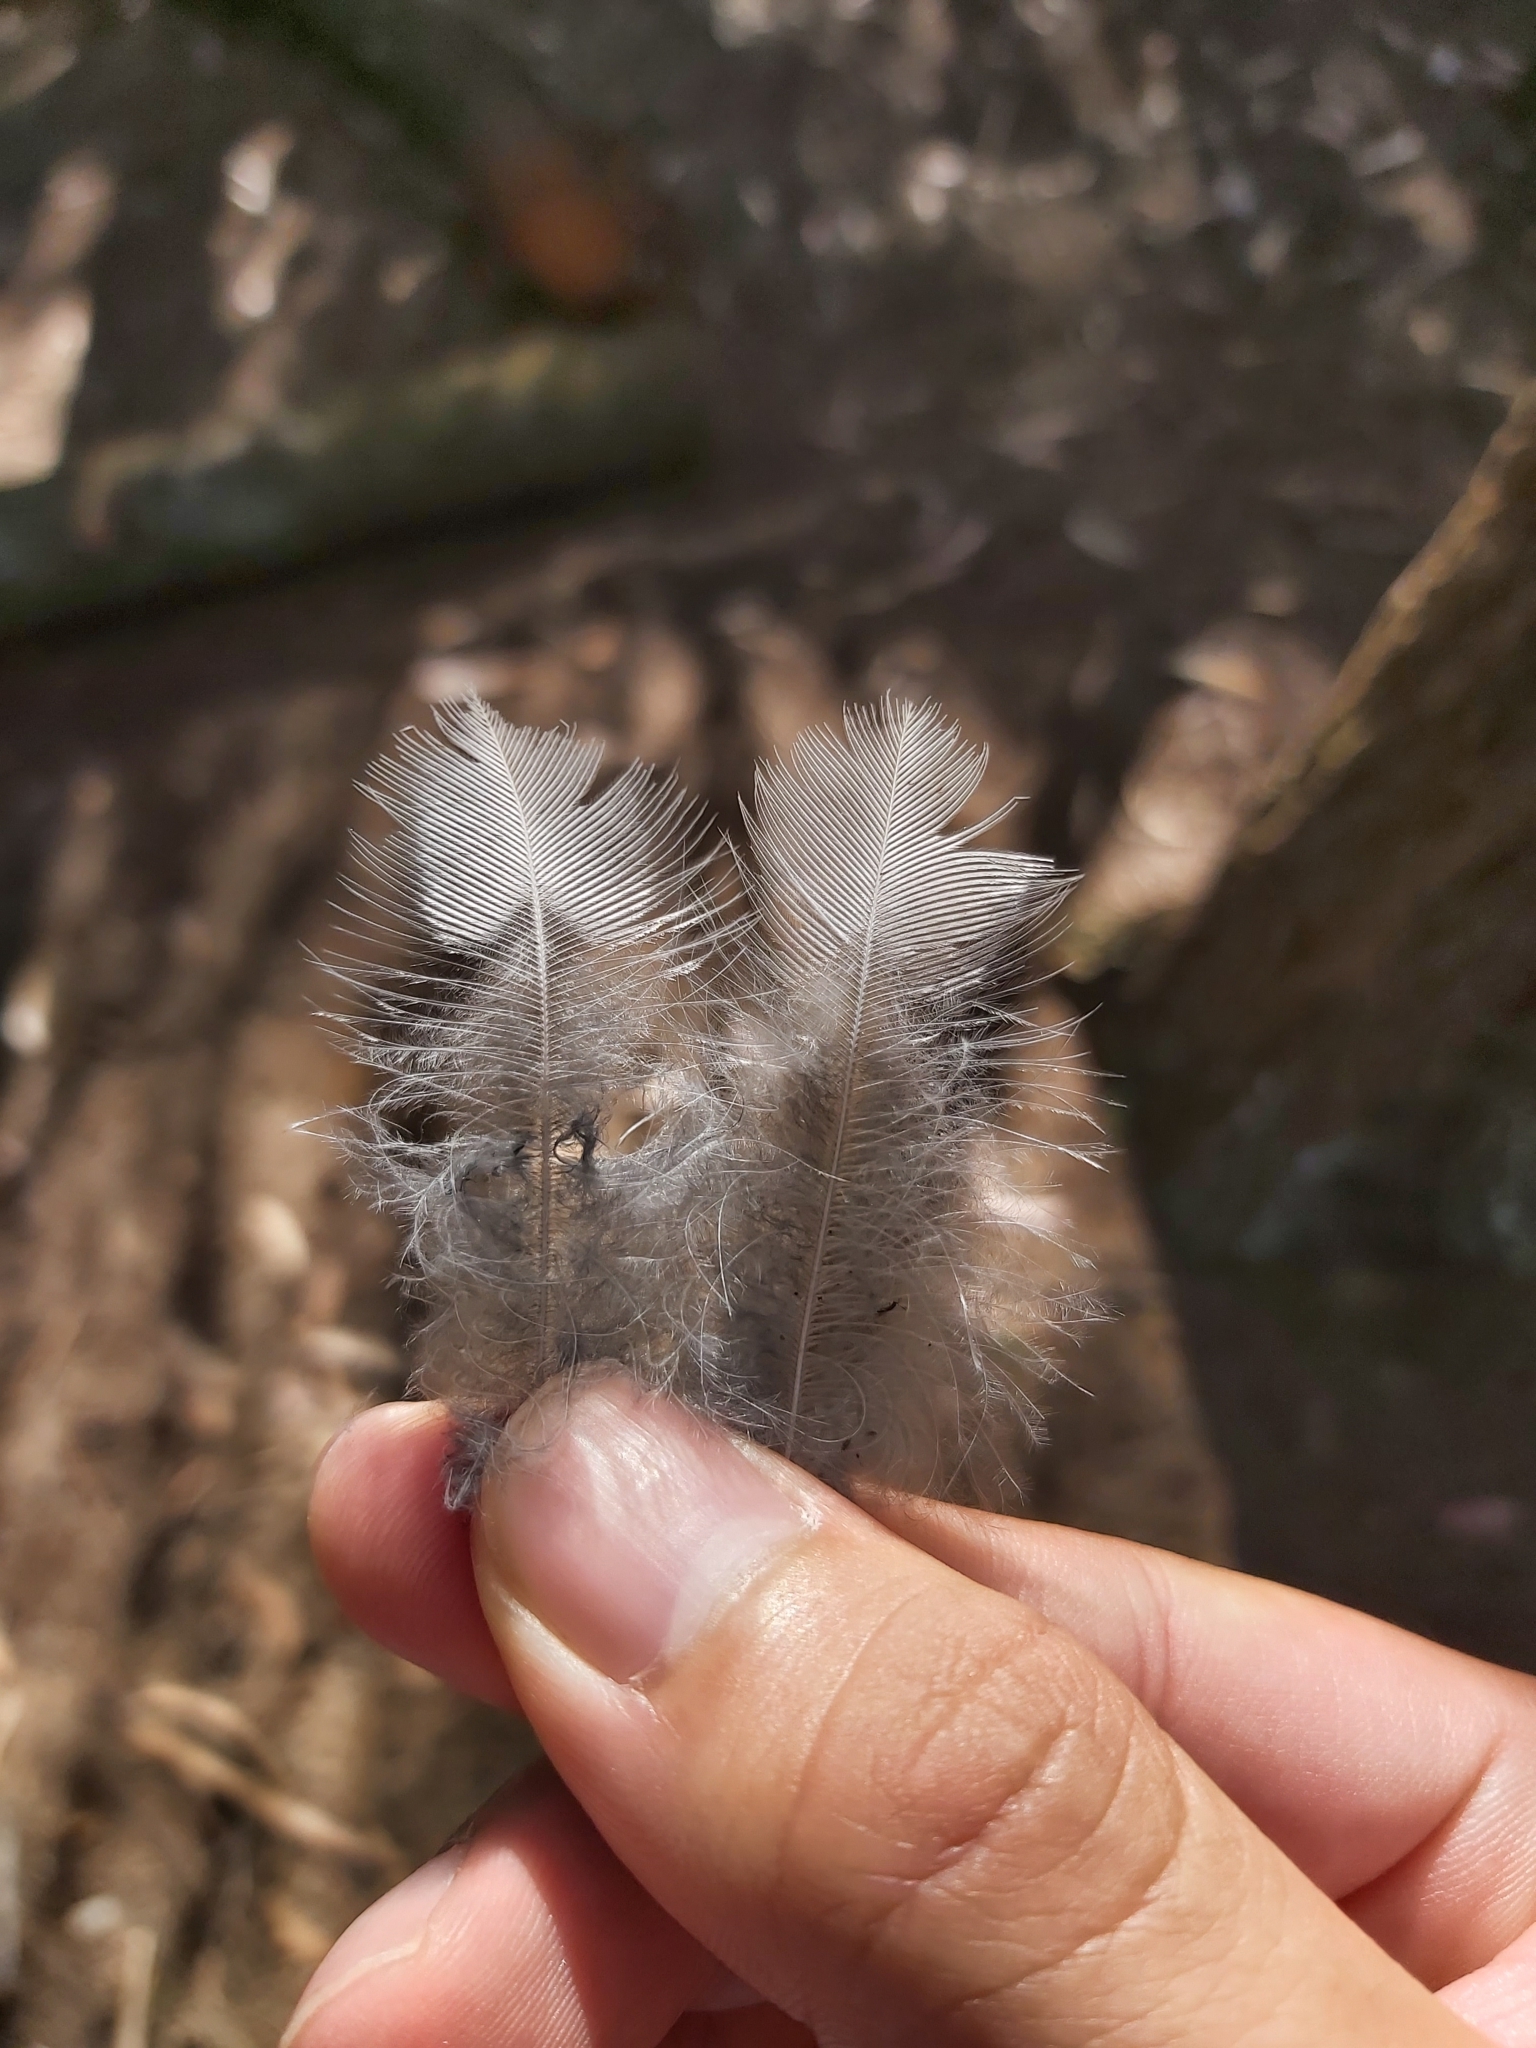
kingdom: Animalia
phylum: Chordata
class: Aves
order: Passeriformes
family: Menuridae
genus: Menura
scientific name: Menura novaehollandiae
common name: Superb lyrebird
